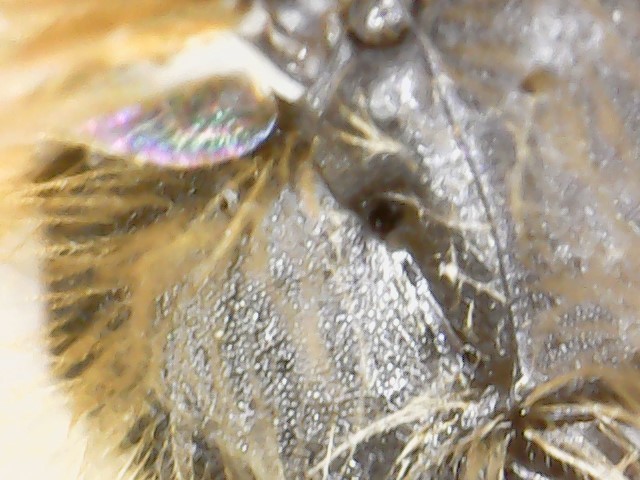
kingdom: Animalia
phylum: Arthropoda
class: Insecta
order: Hymenoptera
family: Andrenidae
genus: Andrena
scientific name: Andrena miserabilis
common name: Miserable mining bee
